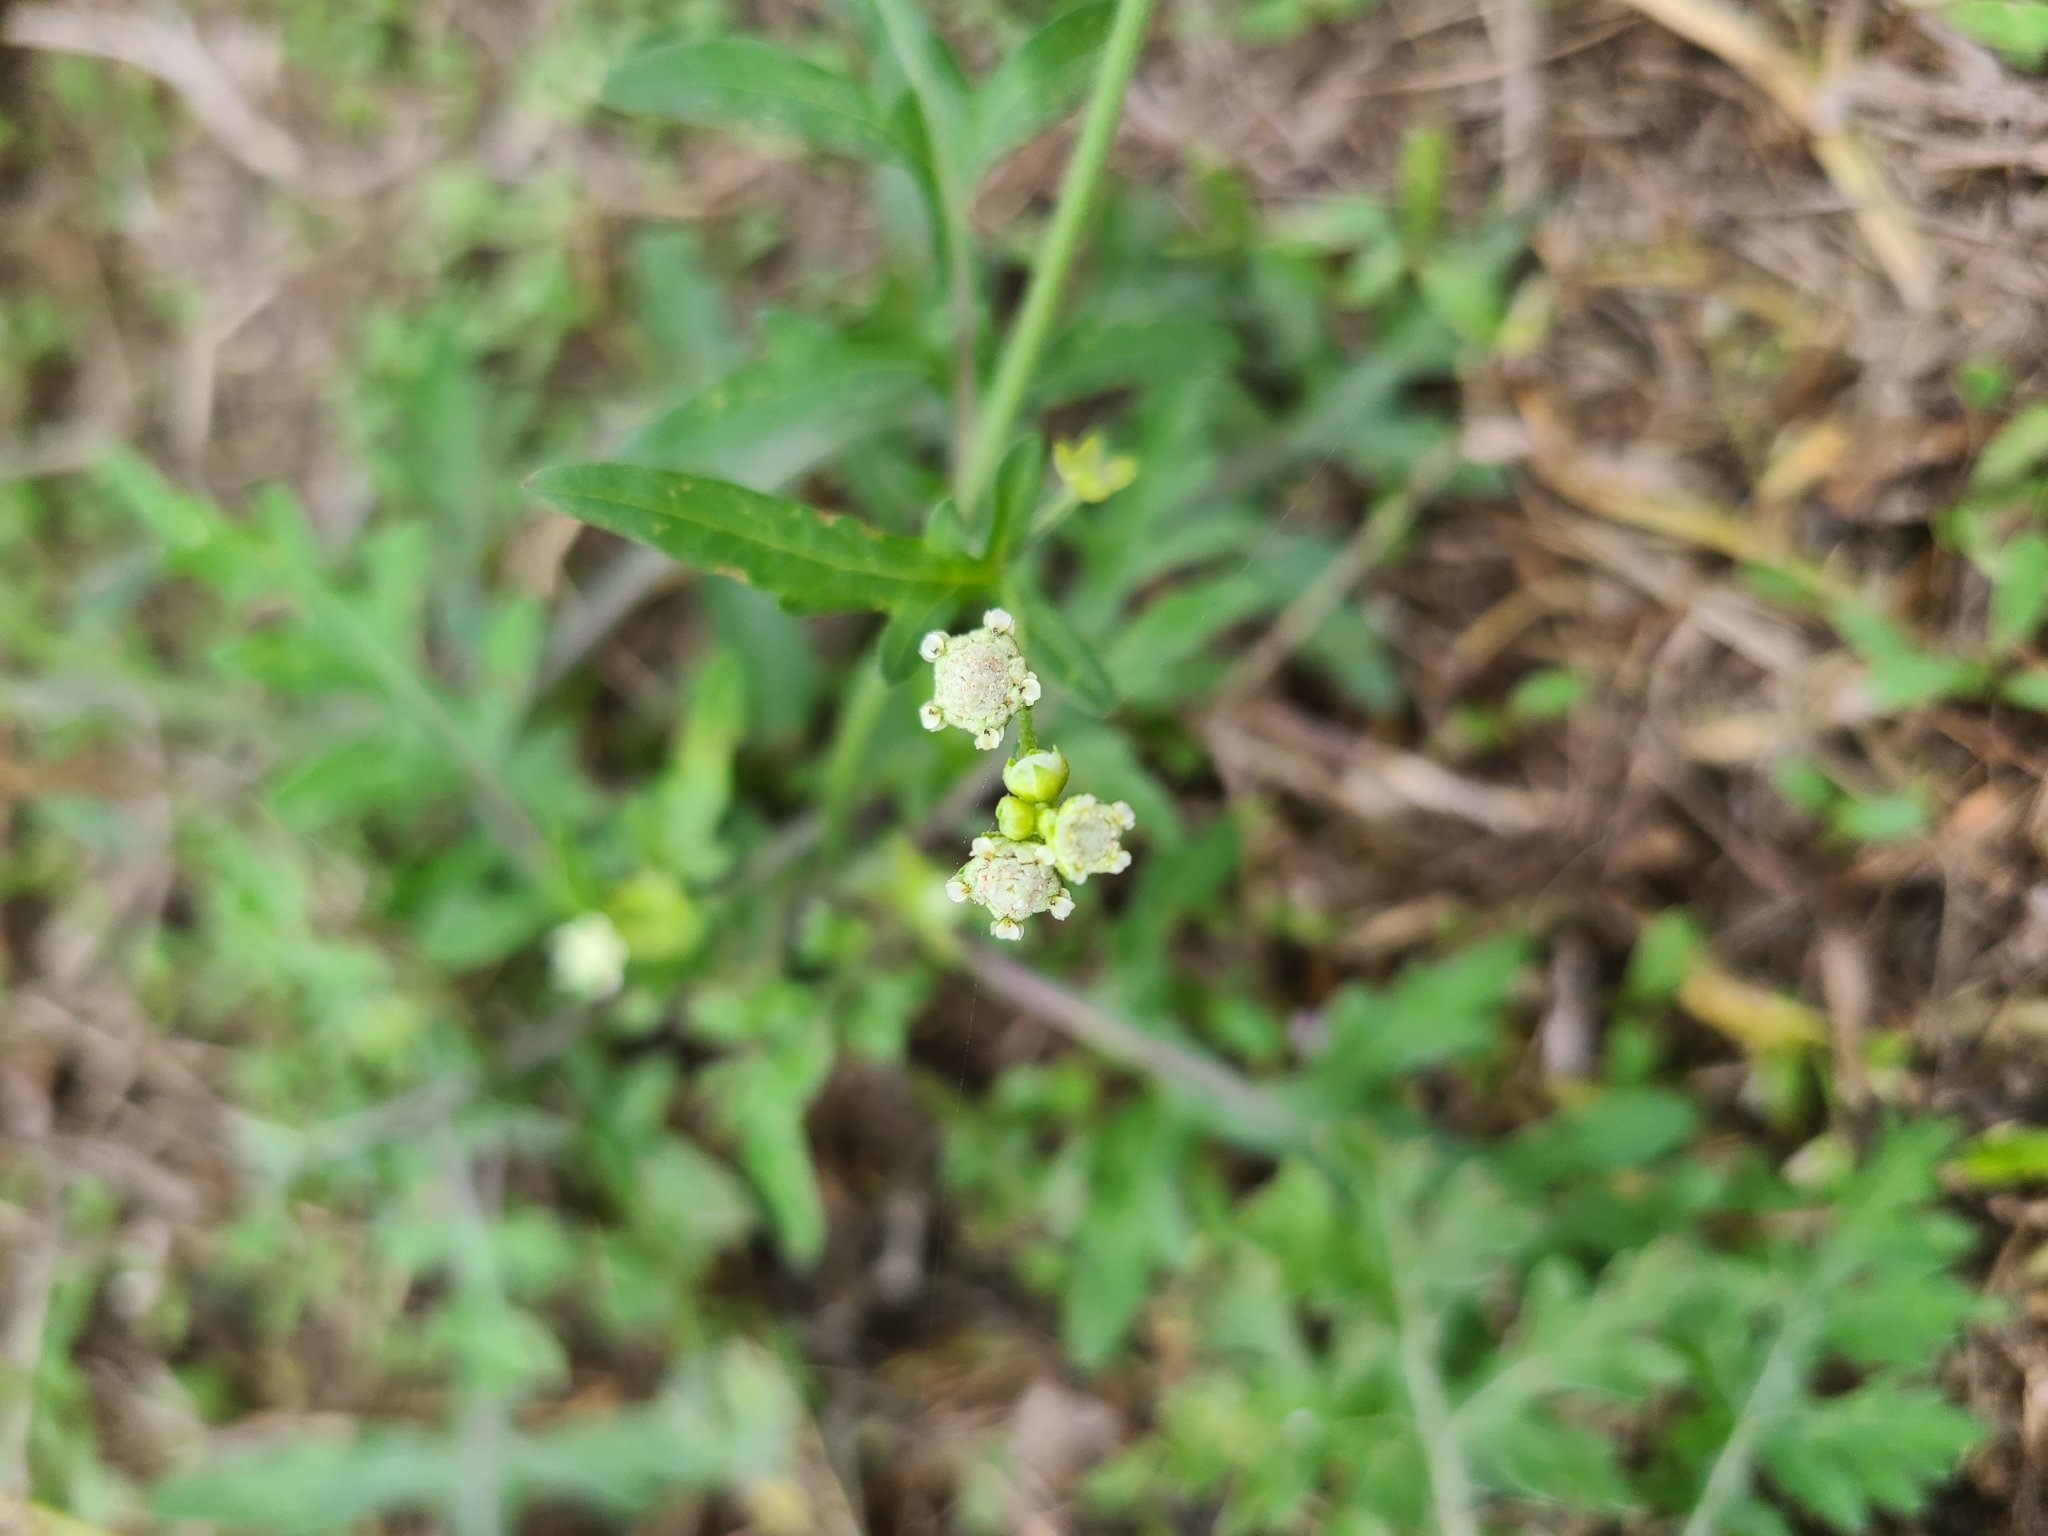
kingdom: Plantae
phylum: Tracheophyta
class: Magnoliopsida
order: Asterales
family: Asteraceae
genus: Parthenium
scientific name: Parthenium hysterophorus
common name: Santa maria feverfew
